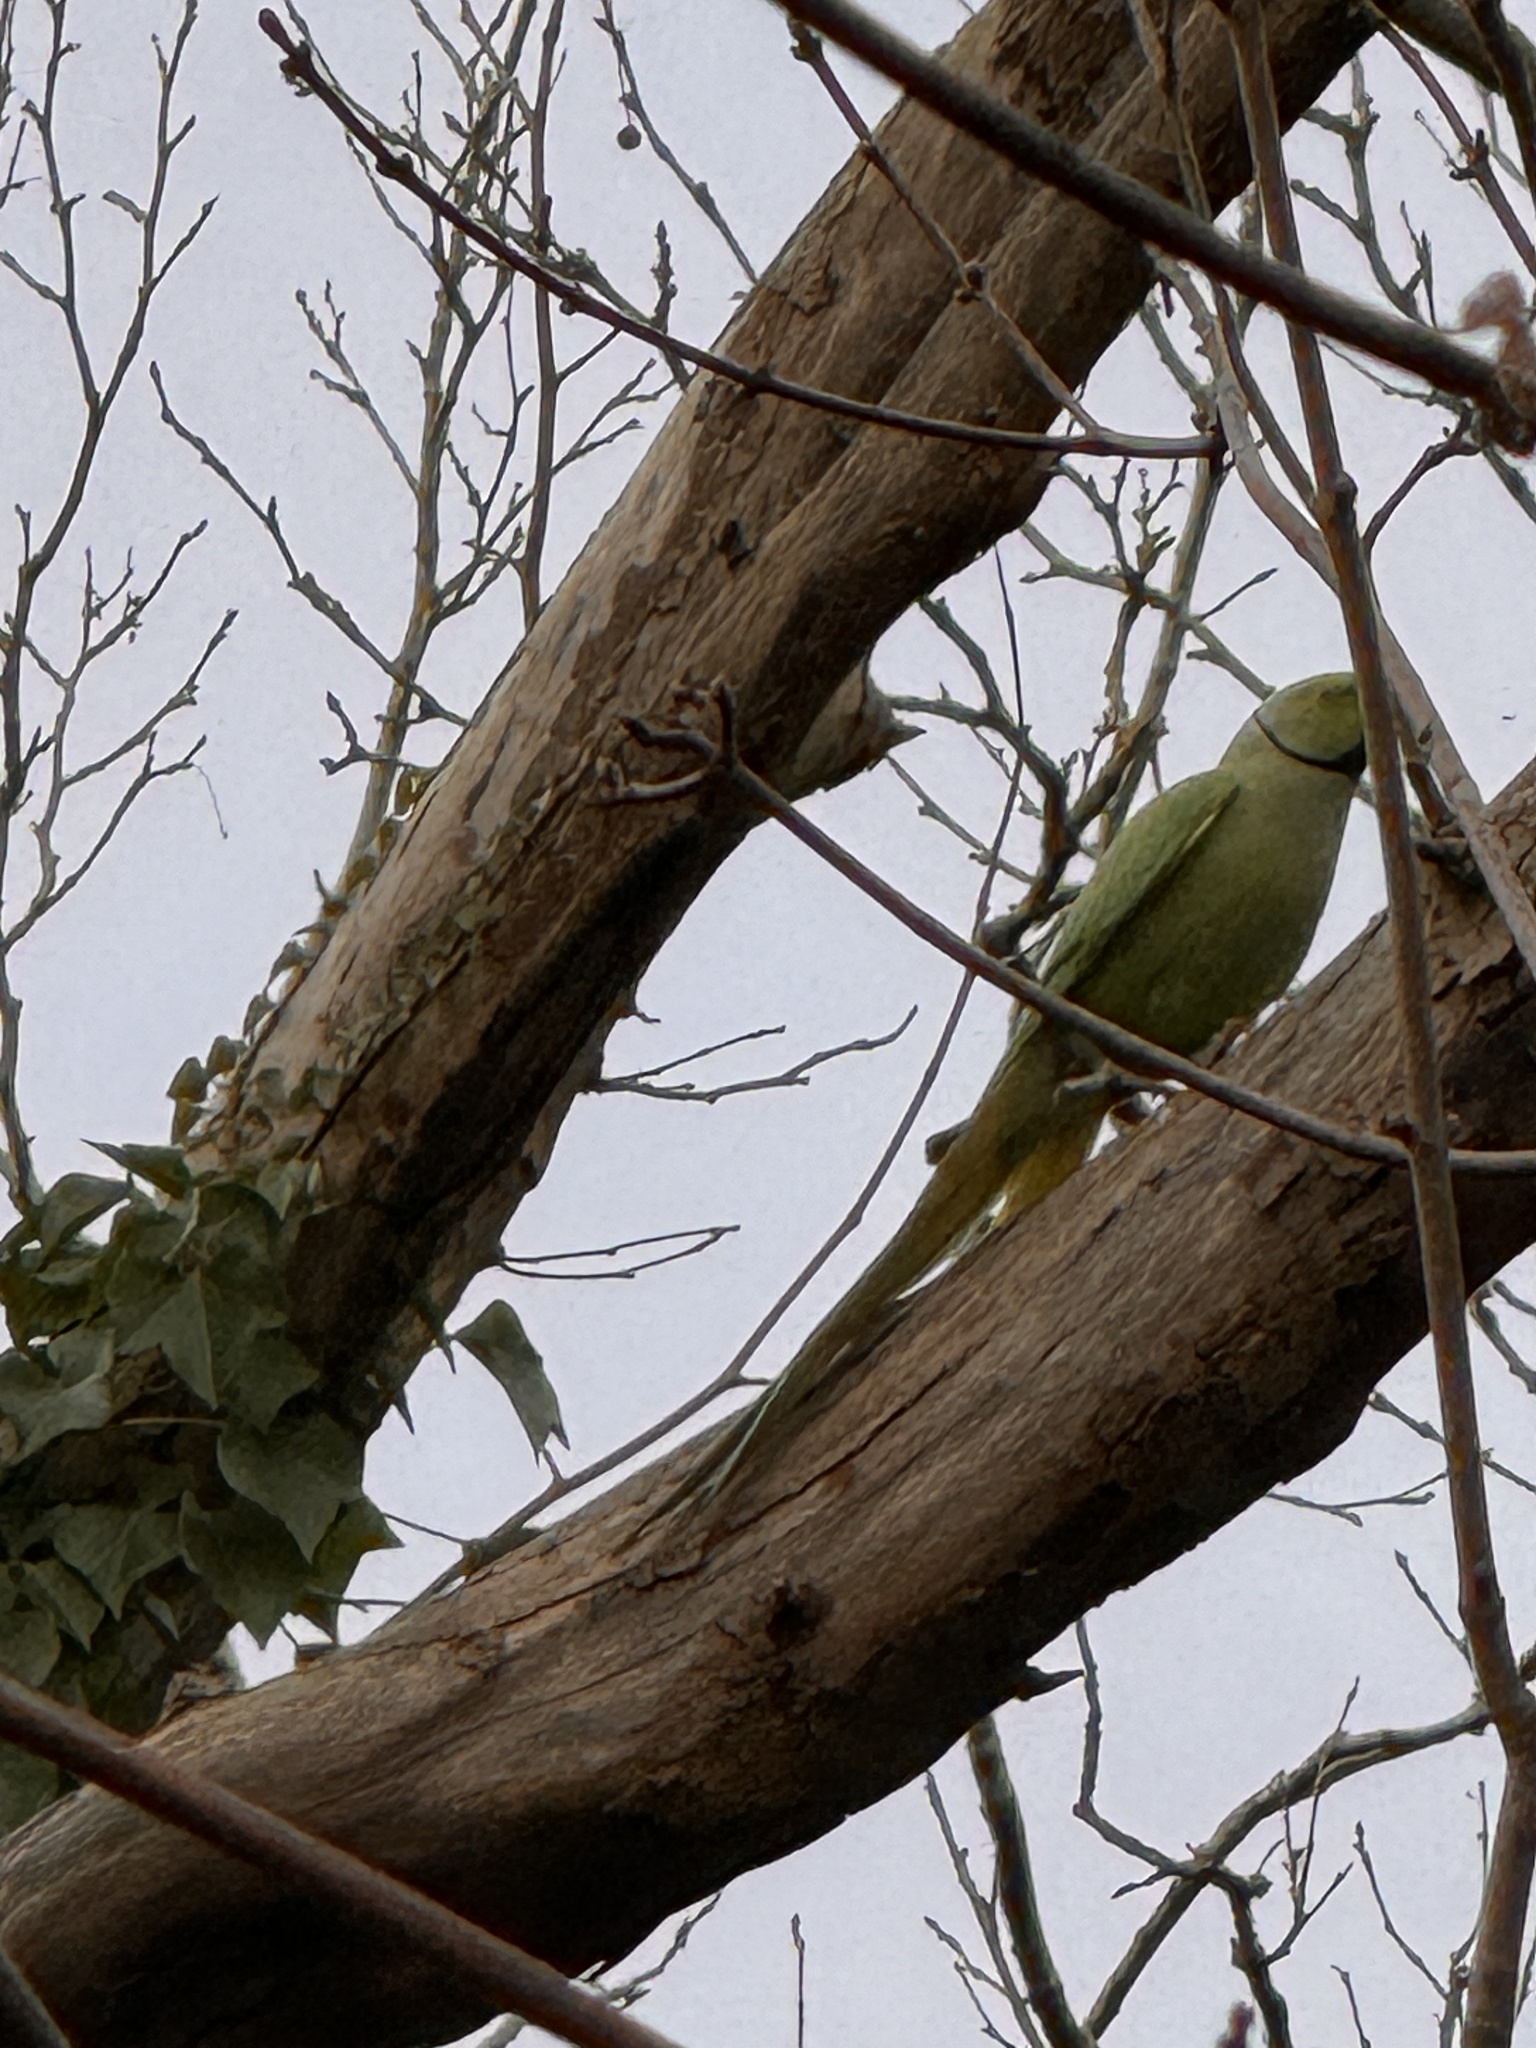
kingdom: Animalia
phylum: Chordata
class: Aves
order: Psittaciformes
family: Psittacidae
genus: Psittacula
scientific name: Psittacula krameri
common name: Rose-ringed parakeet
